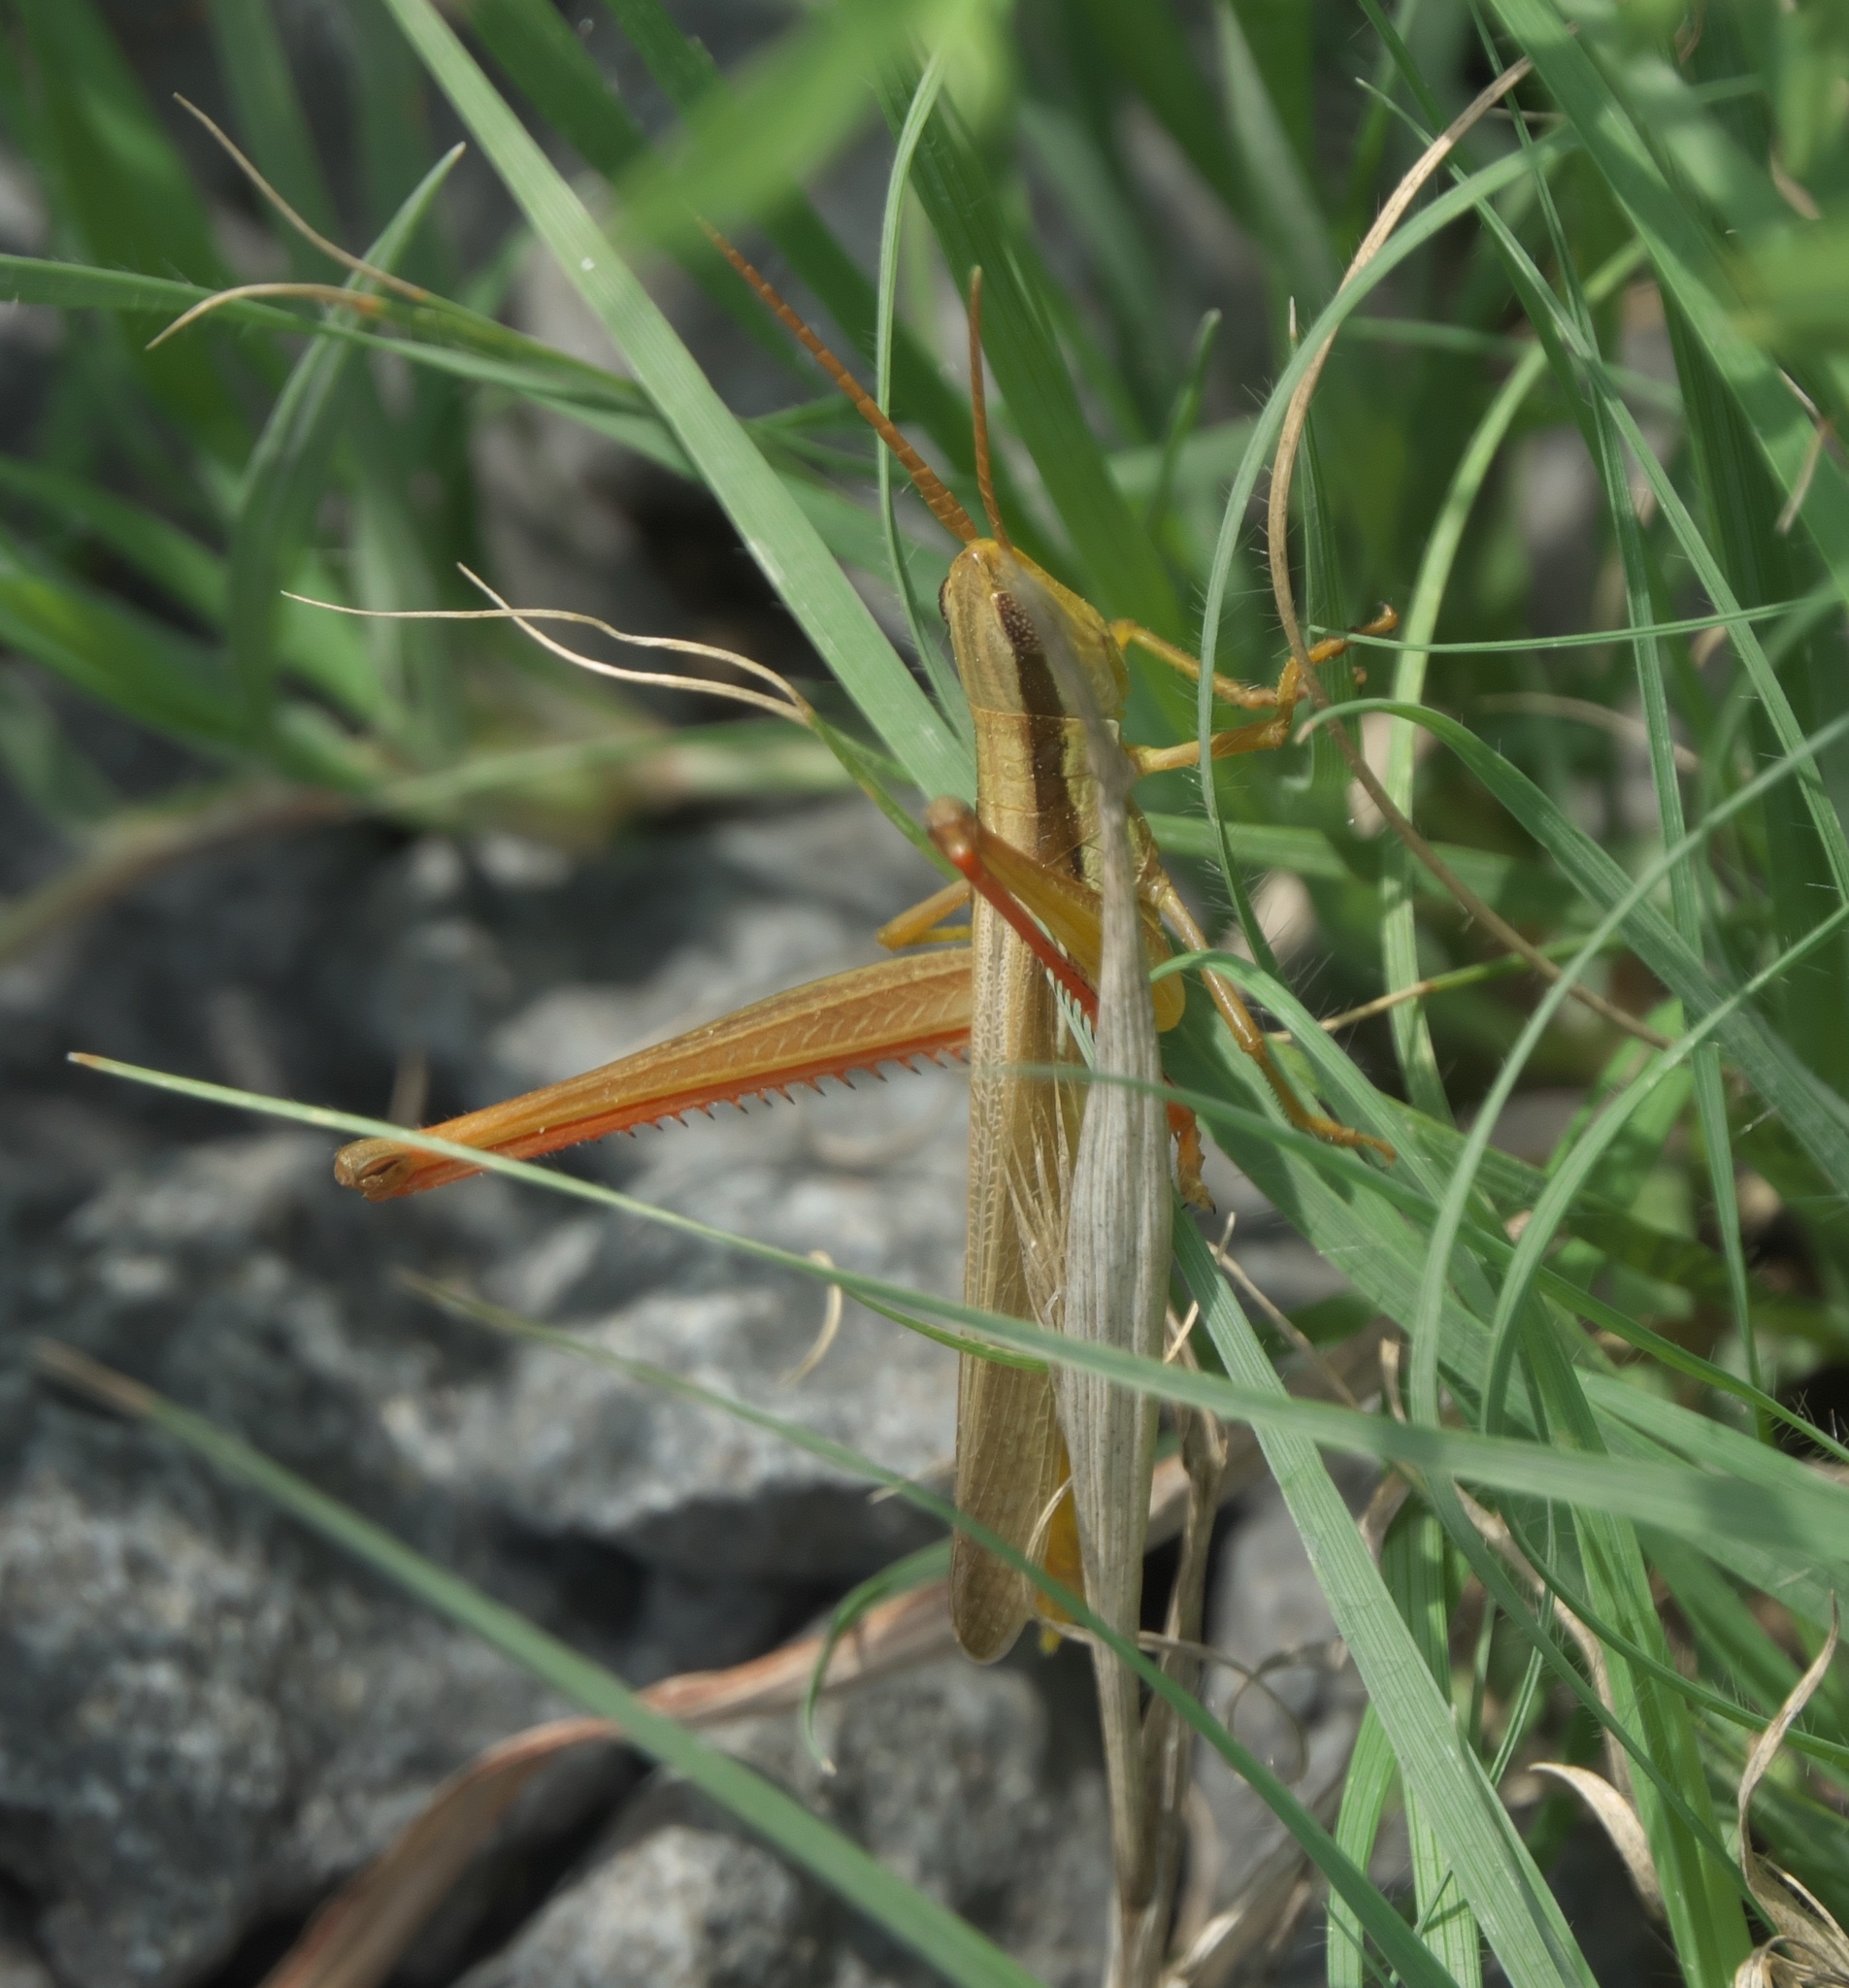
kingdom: Animalia
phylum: Arthropoda
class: Insecta
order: Orthoptera
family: Acrididae
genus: Mermiria
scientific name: Mermiria bivittata
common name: Two-striped mermiria grasshopper
